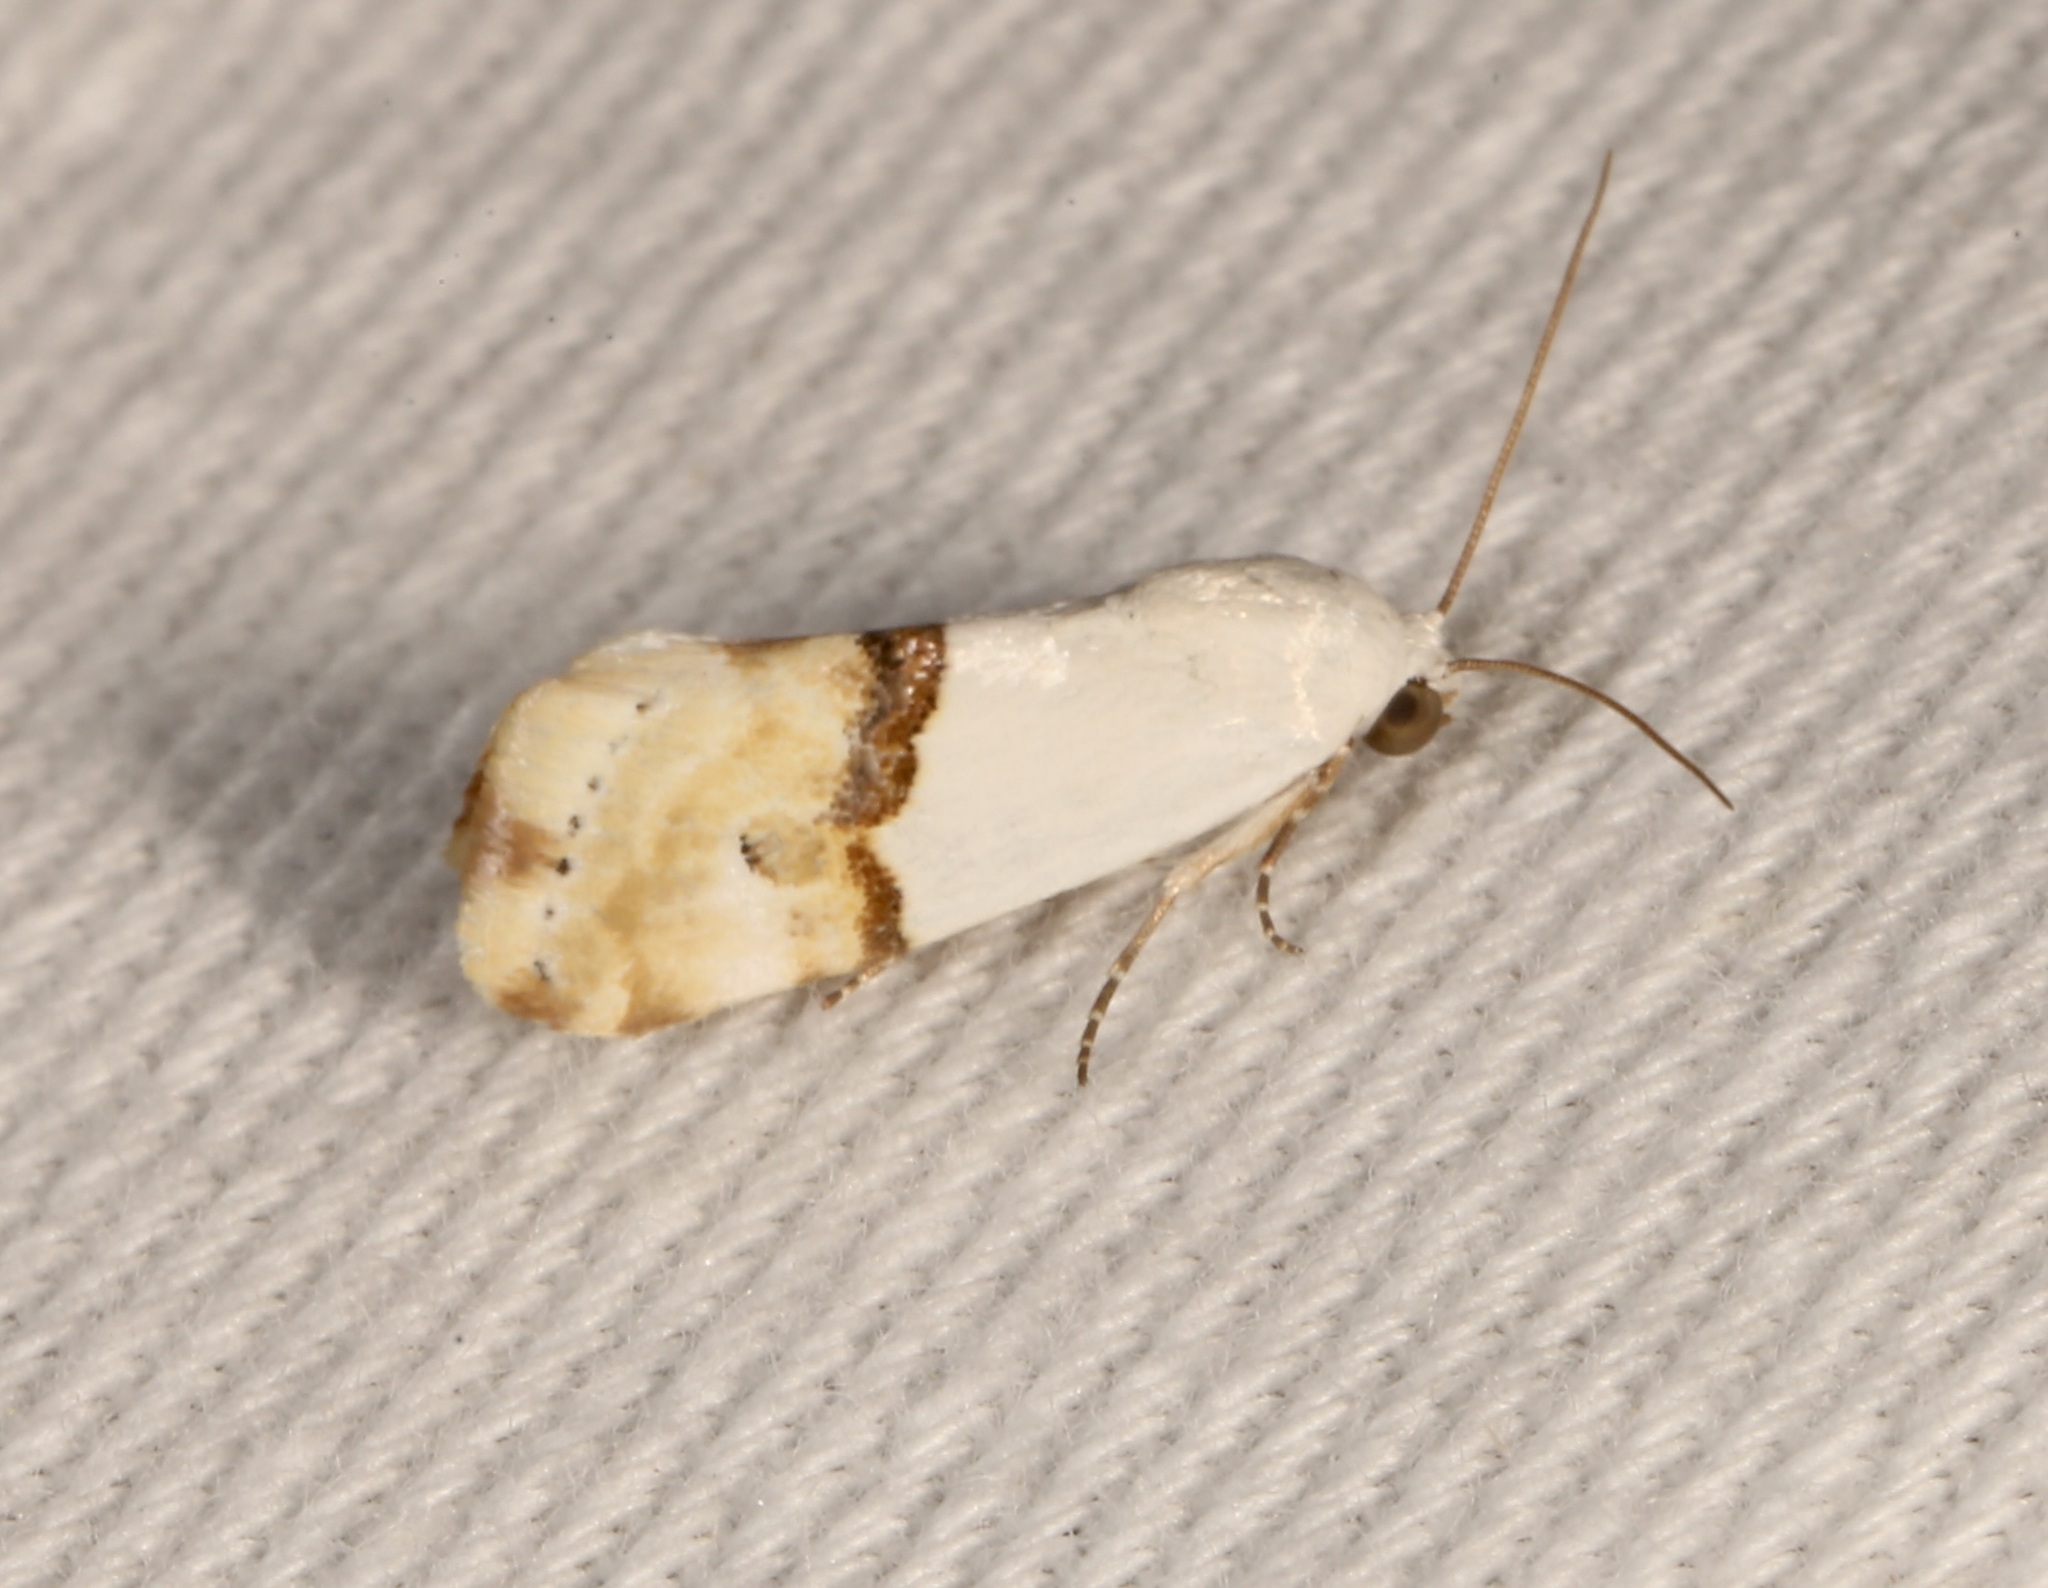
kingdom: Animalia
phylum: Arthropoda
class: Insecta
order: Lepidoptera
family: Noctuidae
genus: Ponometia
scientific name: Ponometia elegantula
